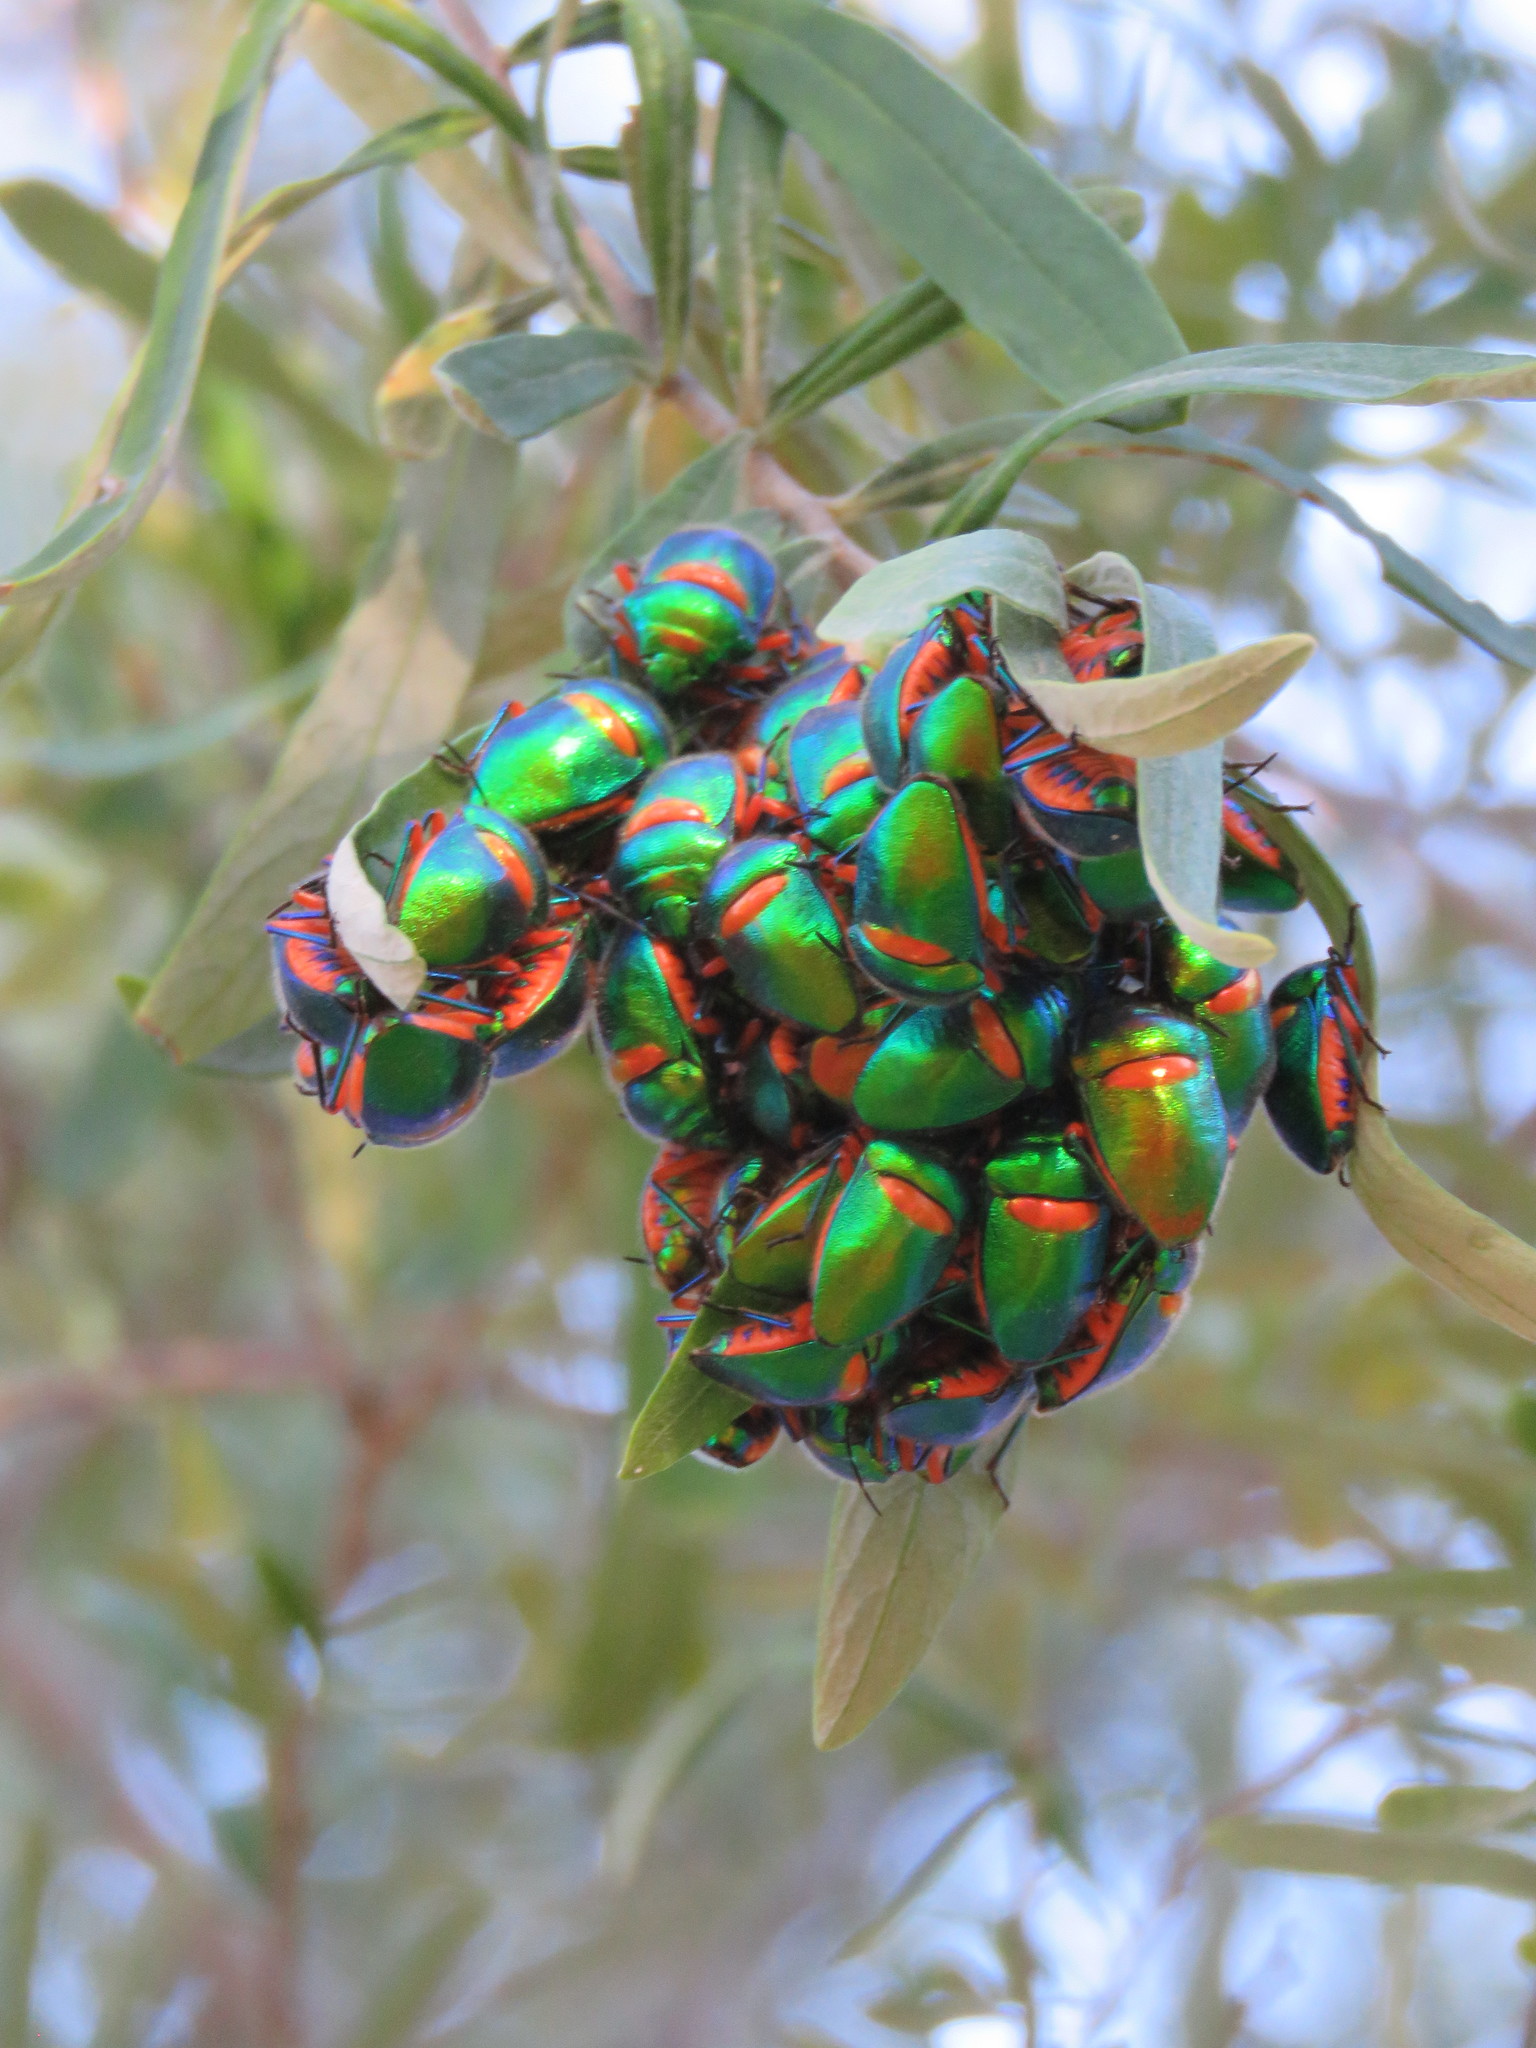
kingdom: Animalia
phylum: Arthropoda
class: Insecta
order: Hemiptera
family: Scutelleridae
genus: Lampromicra
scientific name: Lampromicra senator
